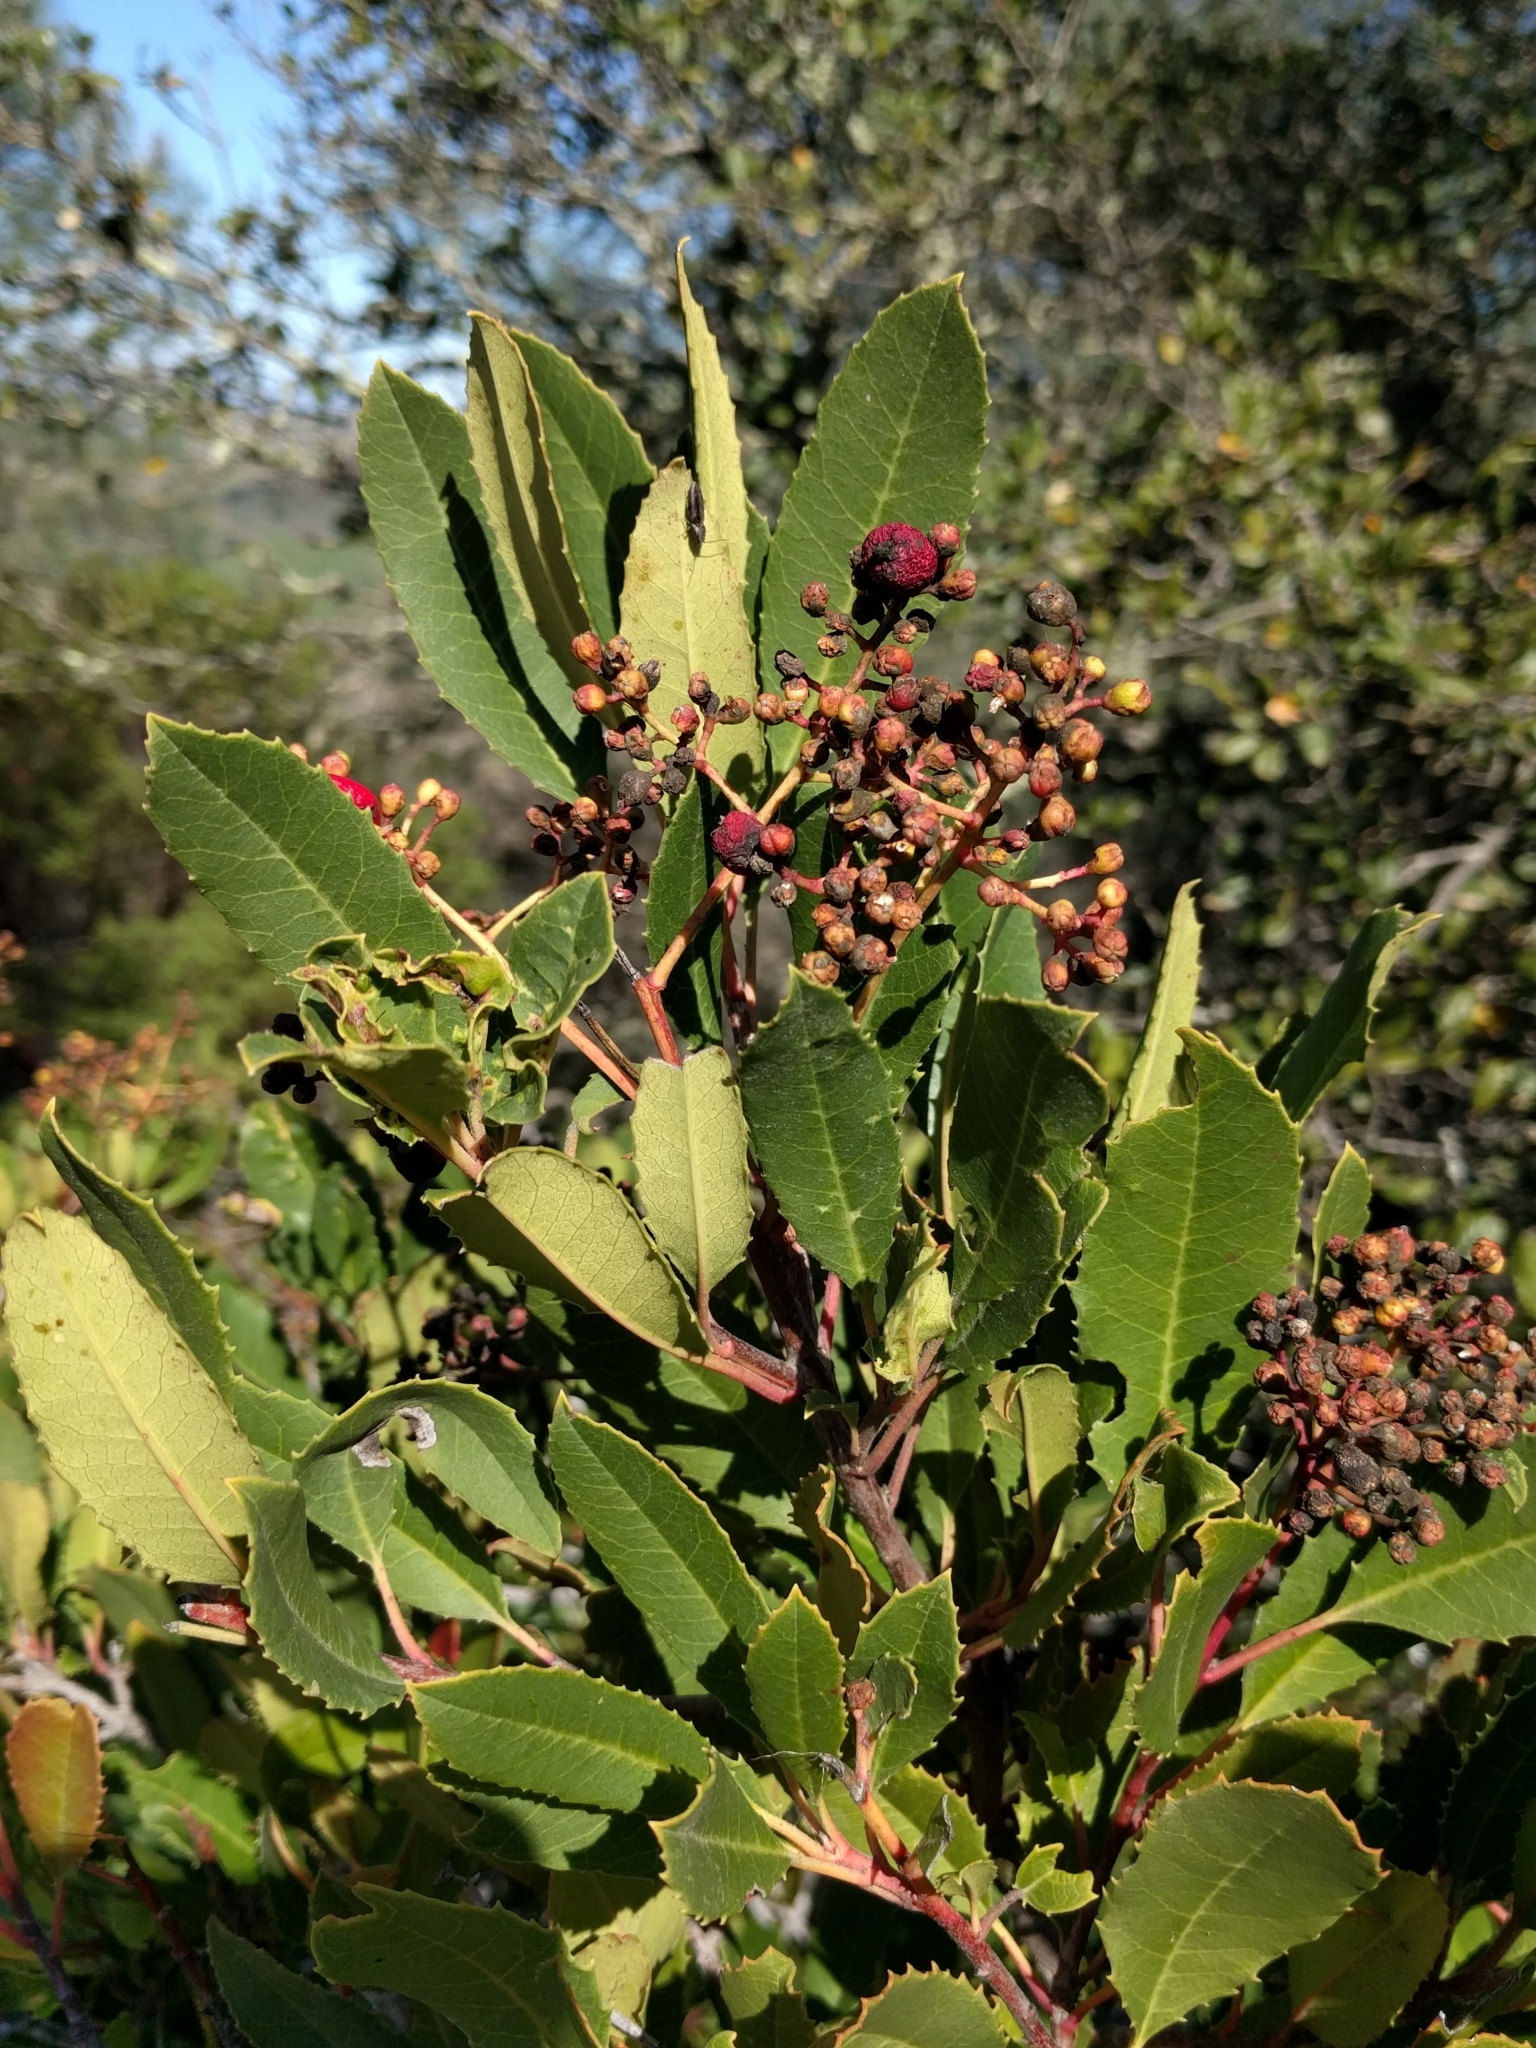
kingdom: Plantae
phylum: Tracheophyta
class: Magnoliopsida
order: Rosales
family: Rosaceae
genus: Heteromeles
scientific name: Heteromeles arbutifolia
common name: California-holly
